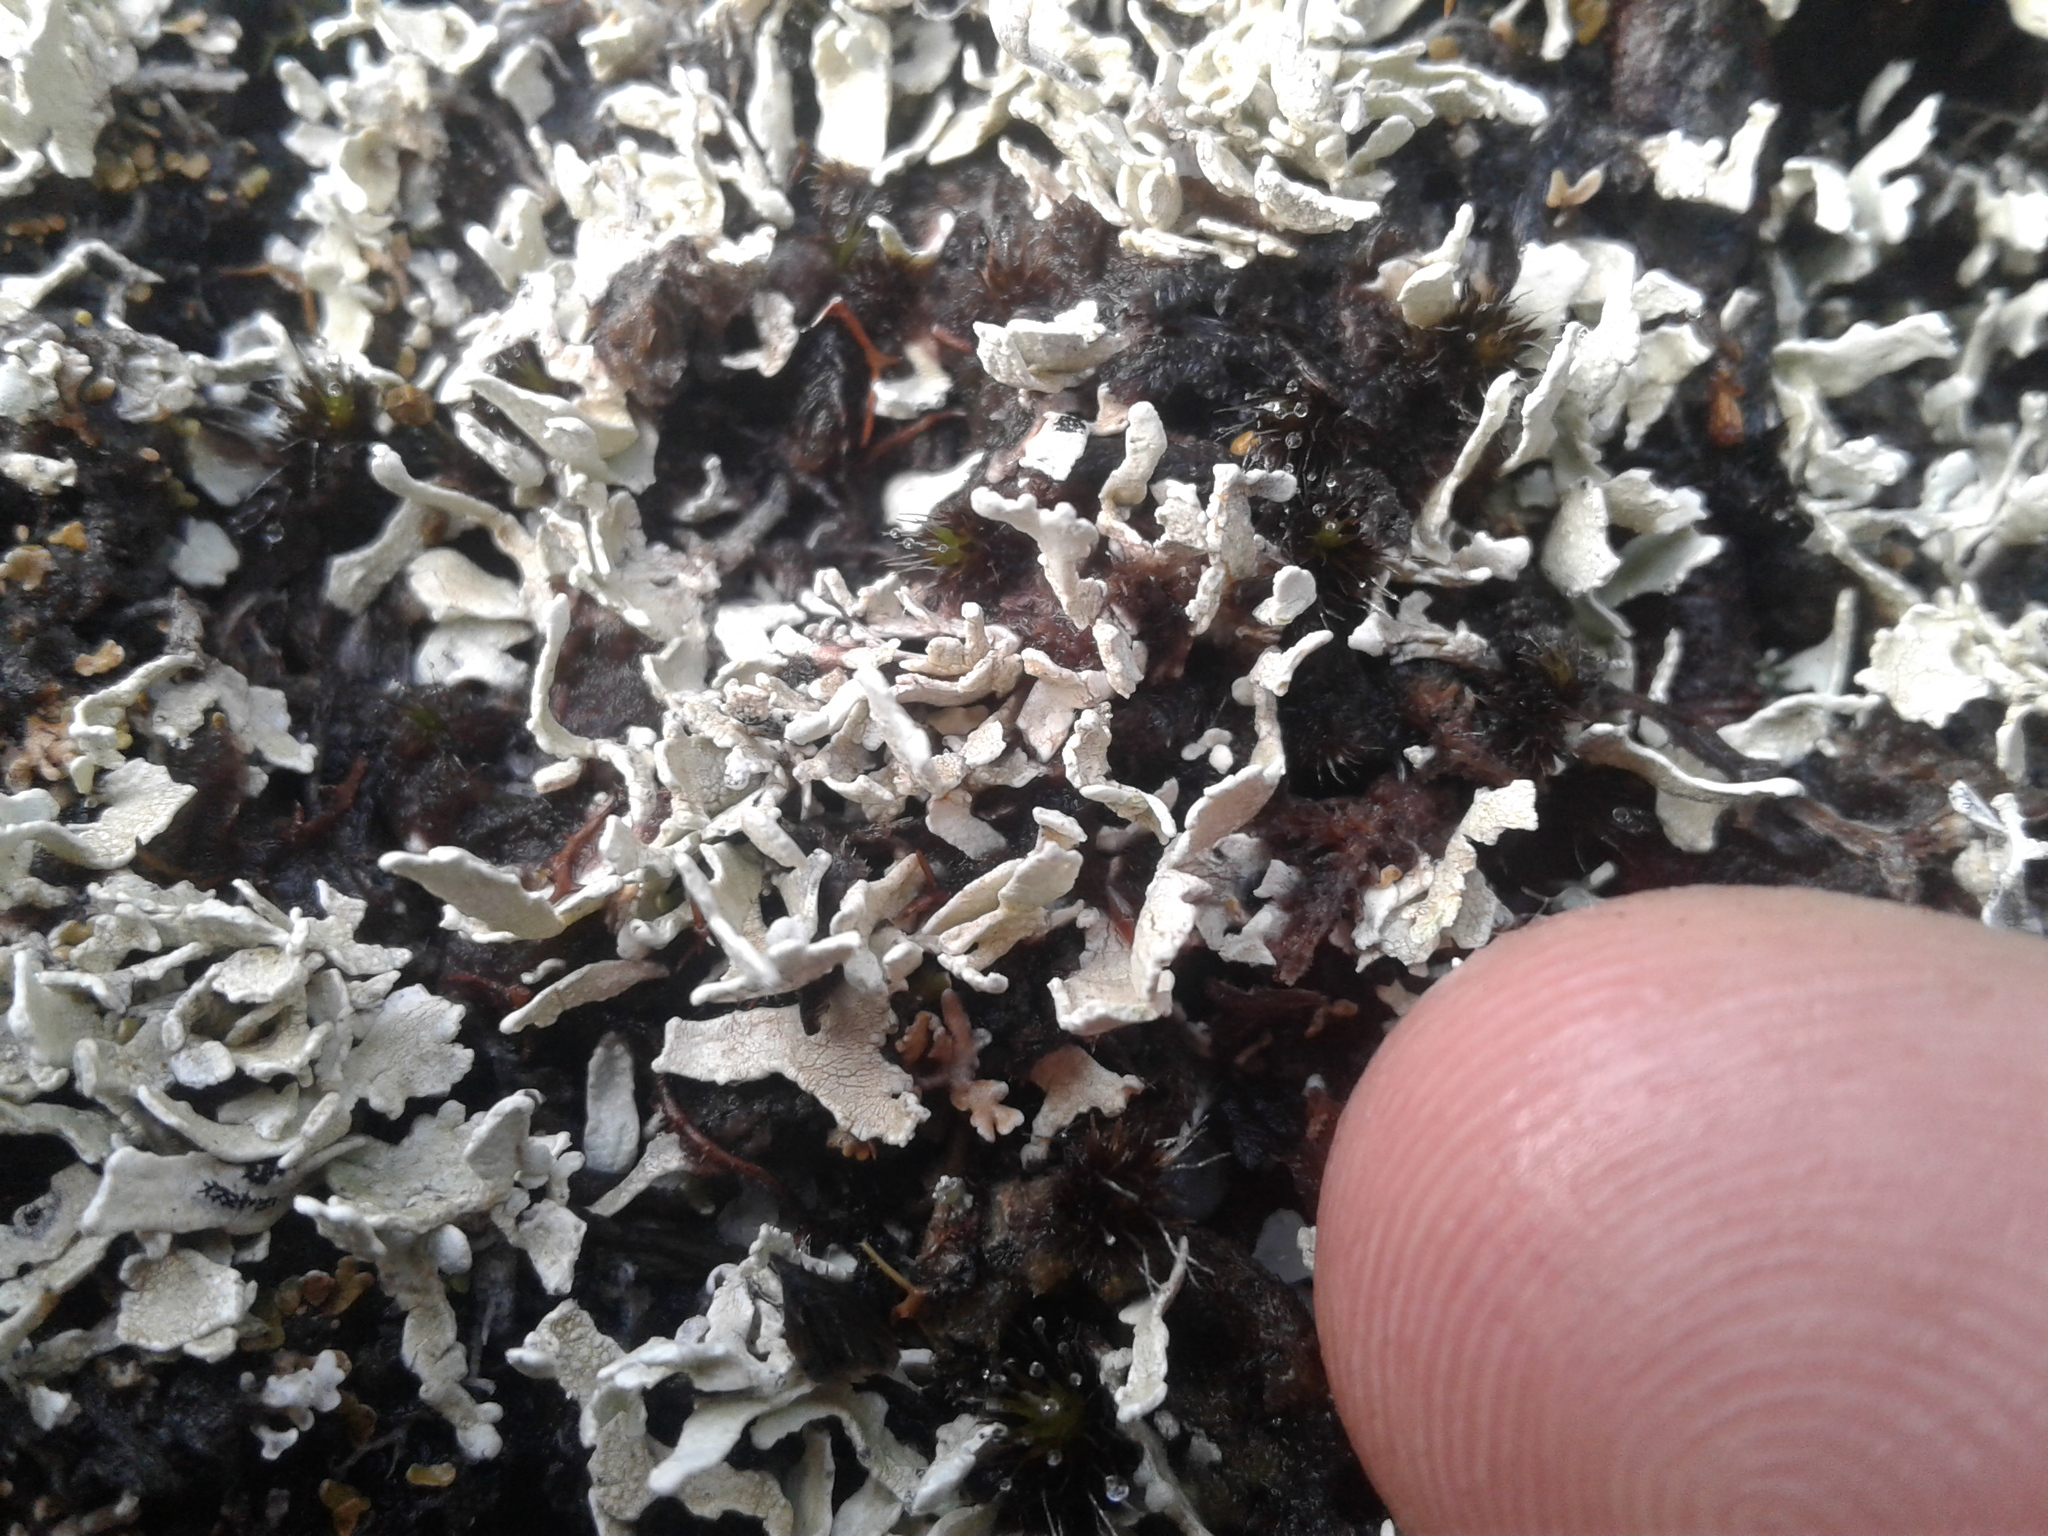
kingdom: Fungi
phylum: Ascomycota
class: Lecanoromycetes
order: Pertusariales
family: Icmadophilaceae
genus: Siphula
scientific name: Siphula decumbens
